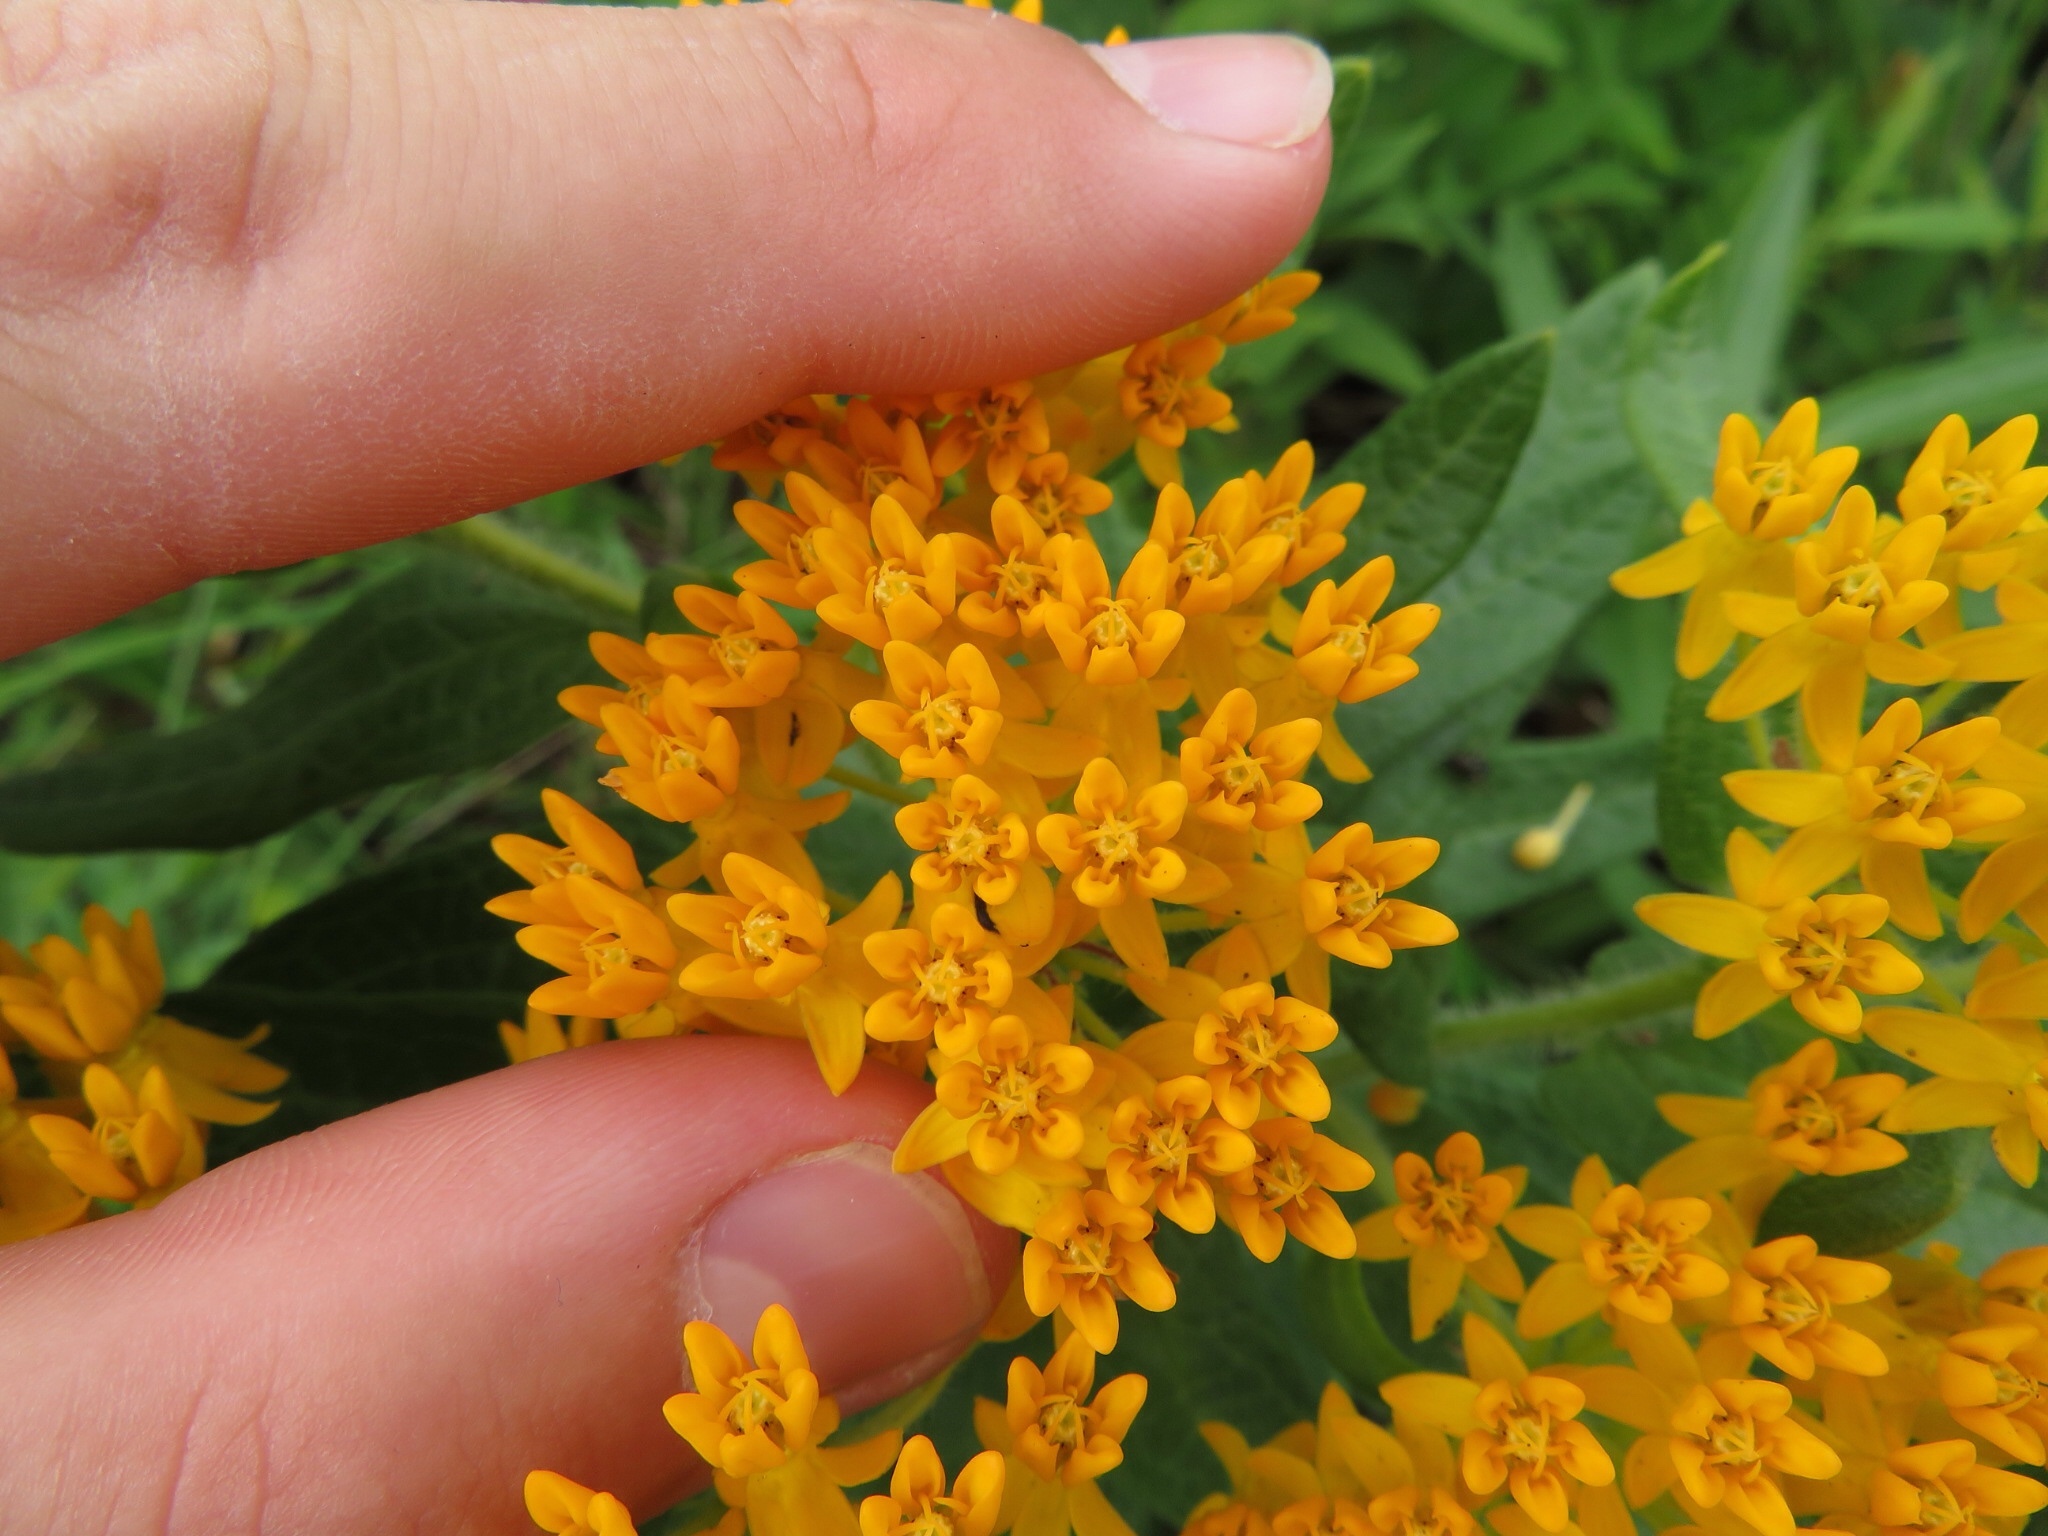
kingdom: Plantae
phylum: Tracheophyta
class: Magnoliopsida
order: Gentianales
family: Apocynaceae
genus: Asclepias
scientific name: Asclepias tuberosa
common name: Butterfly milkweed
